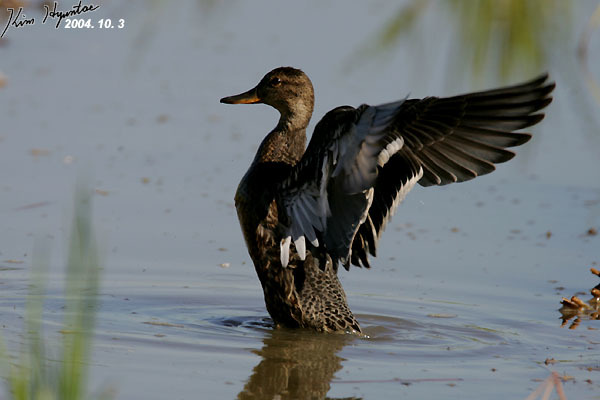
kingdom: Animalia
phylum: Chordata
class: Aves
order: Anseriformes
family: Anatidae
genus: Anas
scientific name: Anas crecca
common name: Eurasian teal
